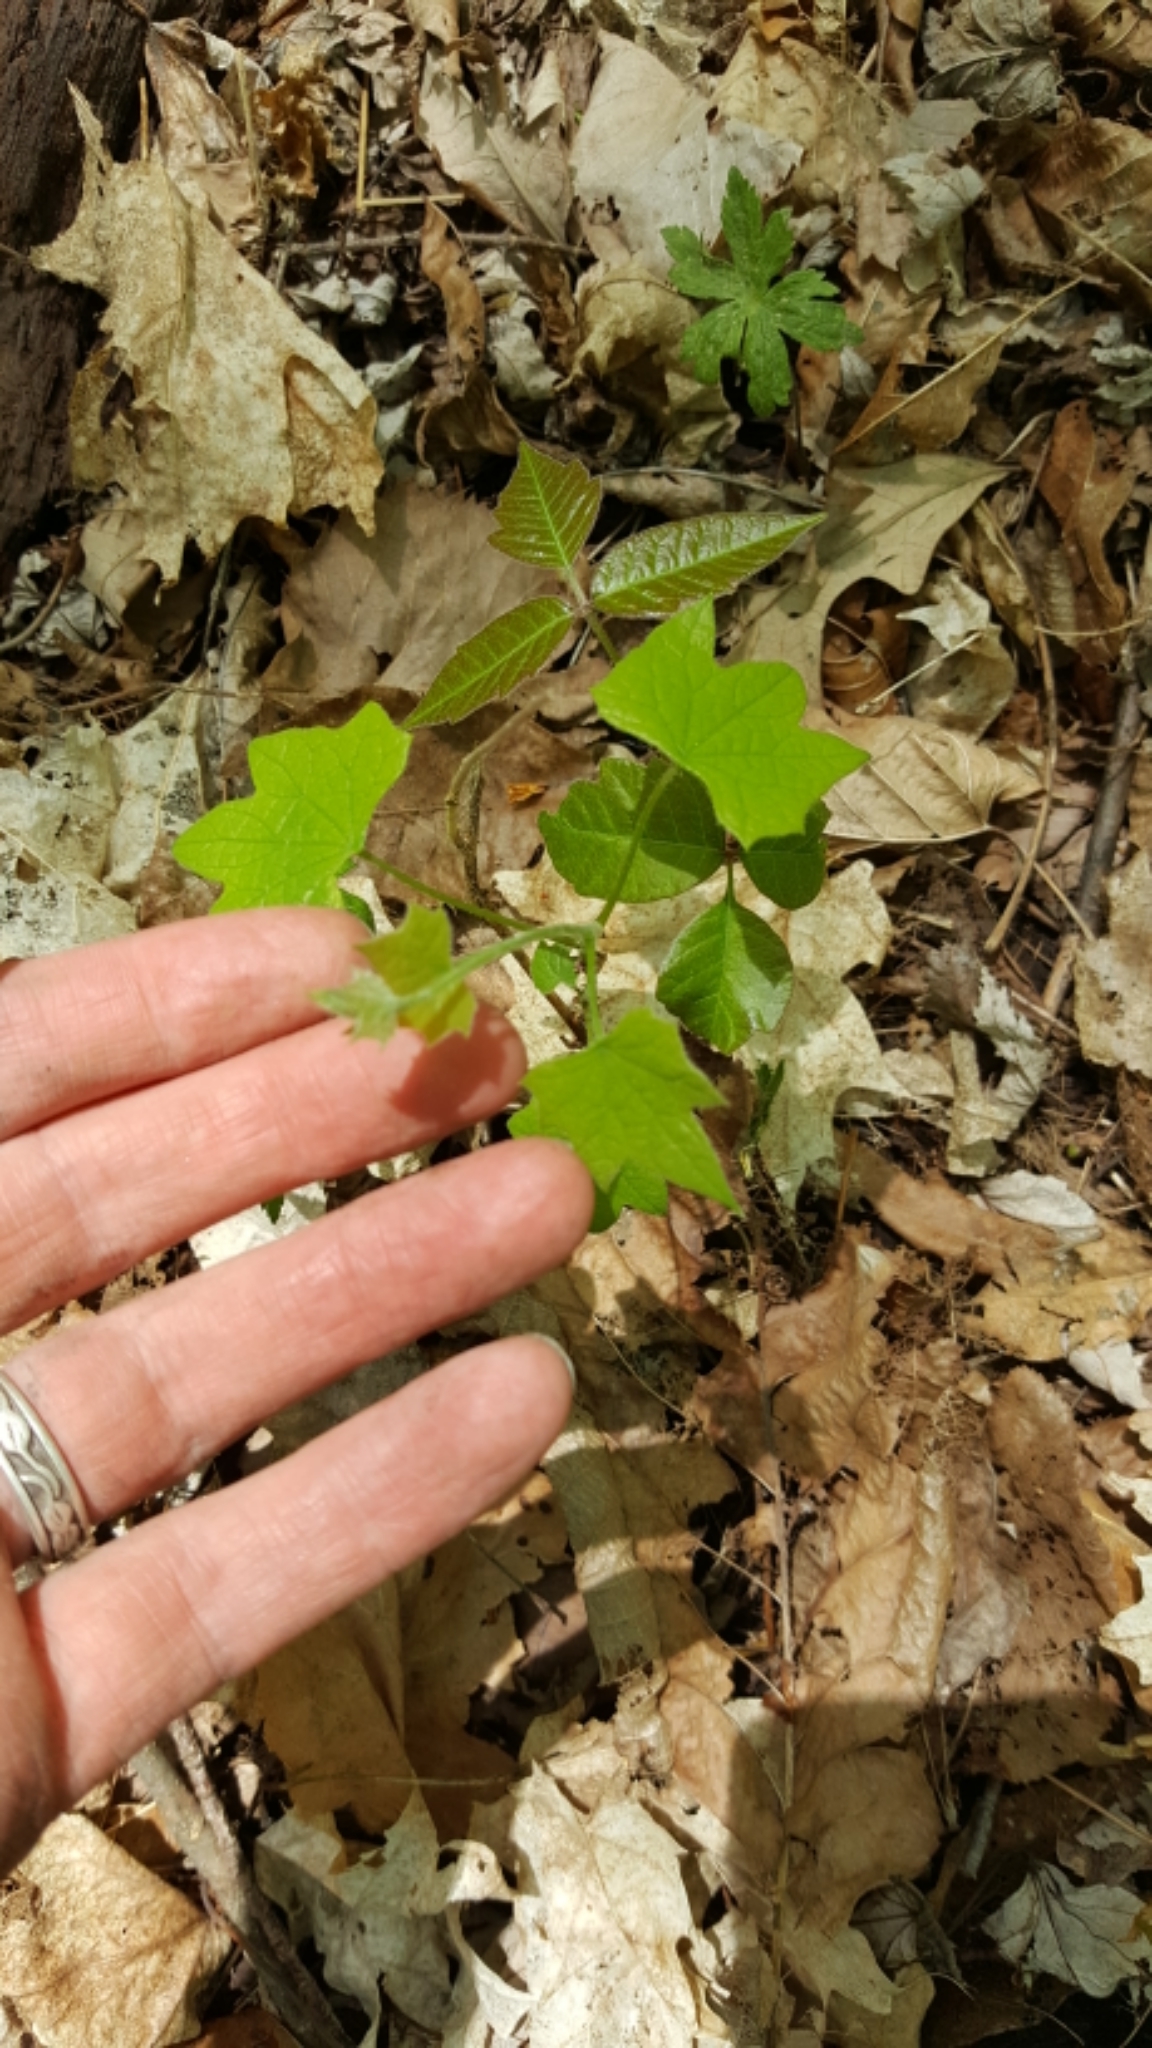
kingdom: Plantae
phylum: Tracheophyta
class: Magnoliopsida
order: Ranunculales
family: Menispermaceae
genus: Menispermum
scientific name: Menispermum canadense
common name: Moonseed
